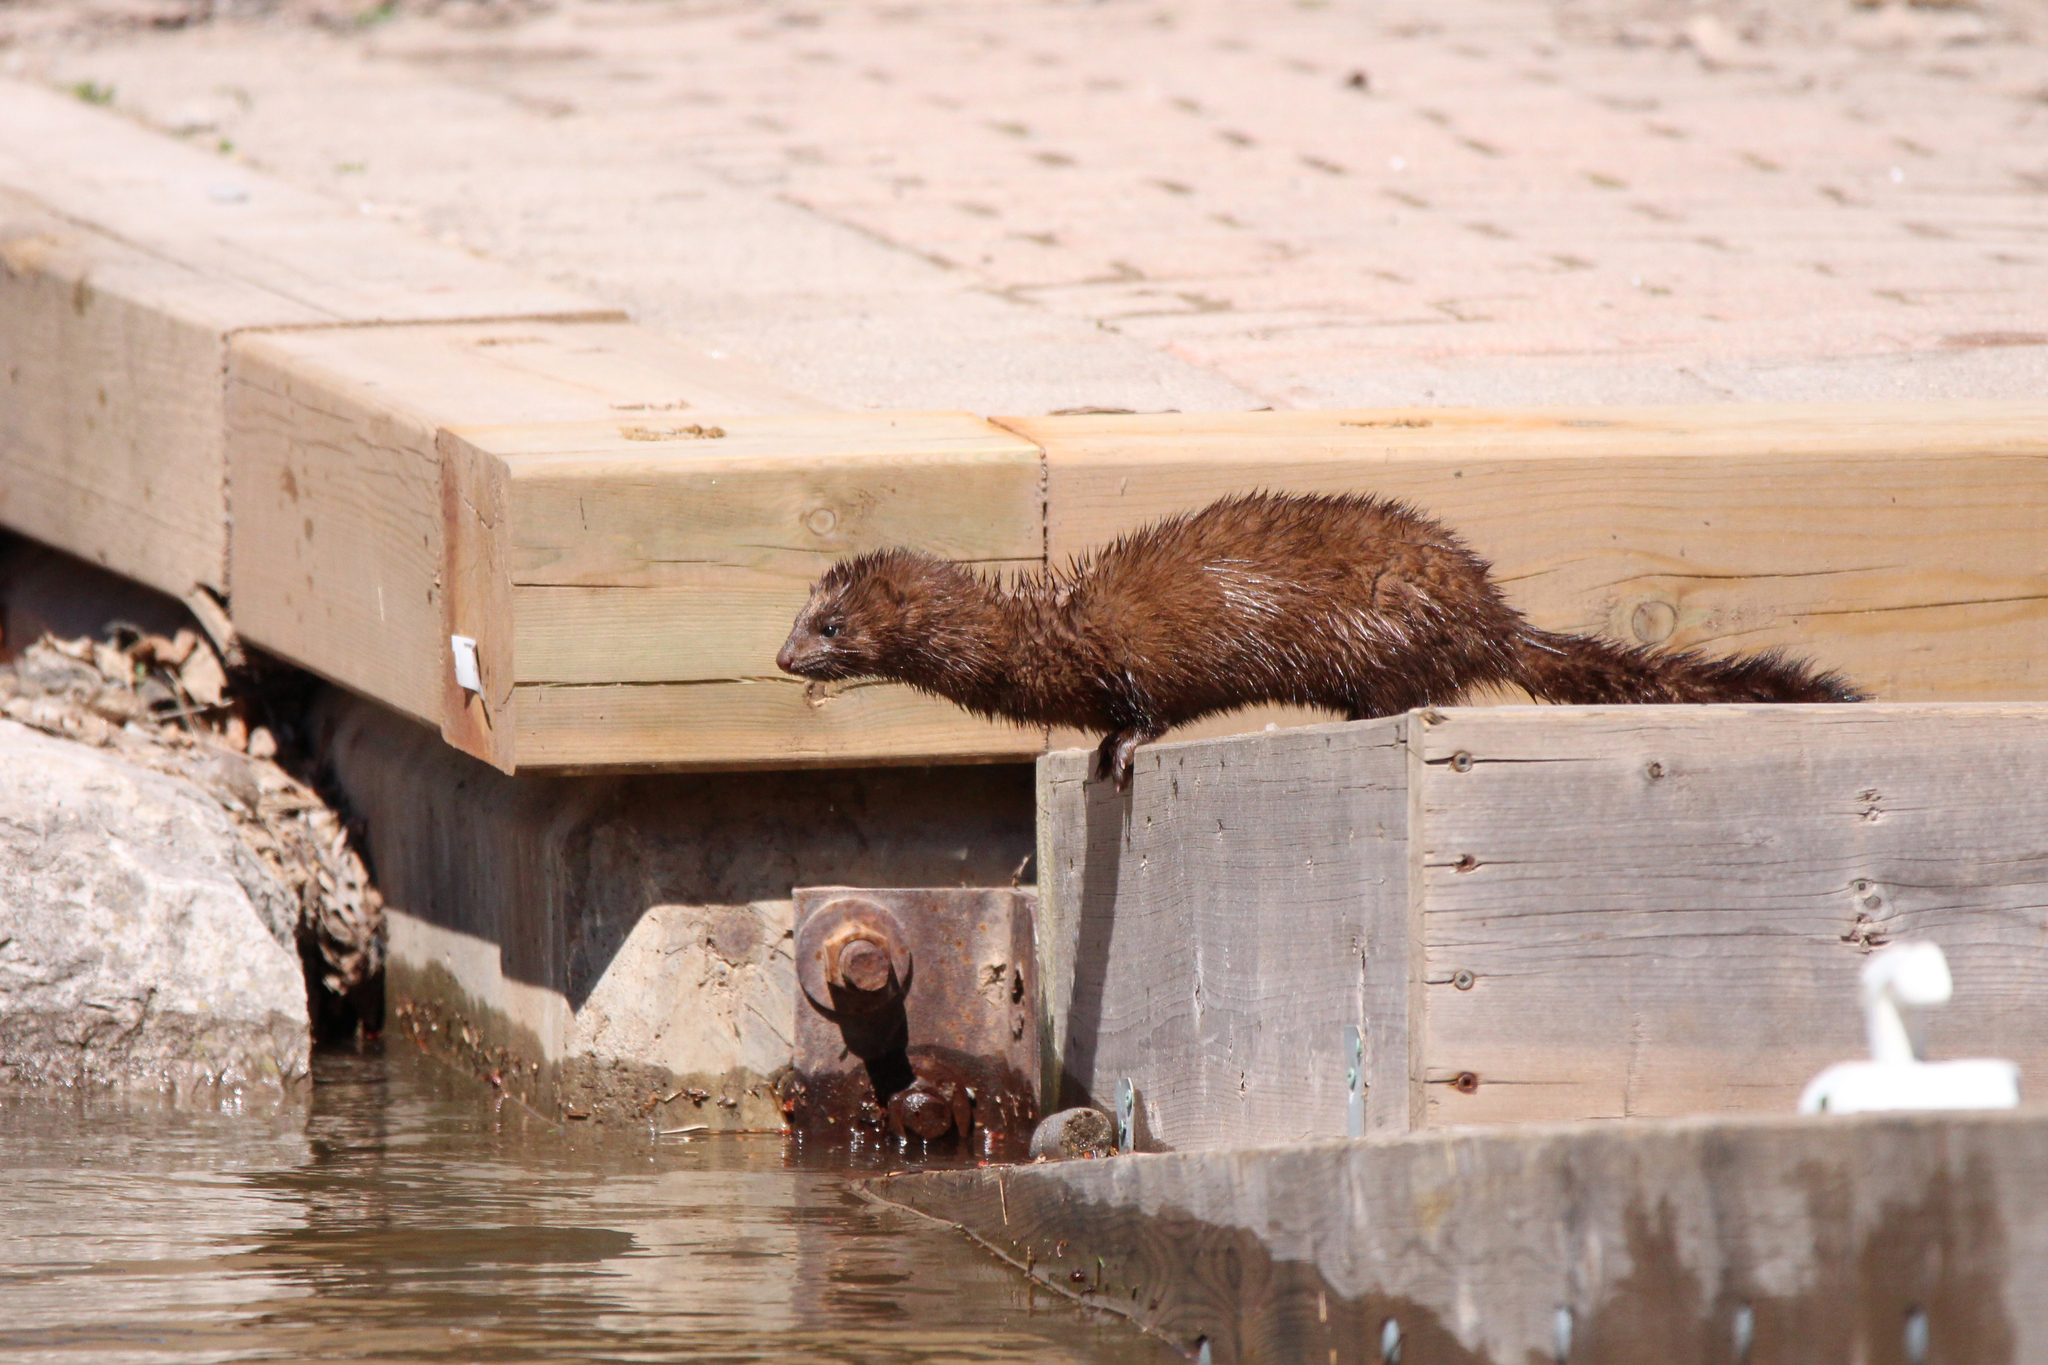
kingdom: Animalia
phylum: Chordata
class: Mammalia
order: Carnivora
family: Mustelidae
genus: Mustela
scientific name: Mustela
